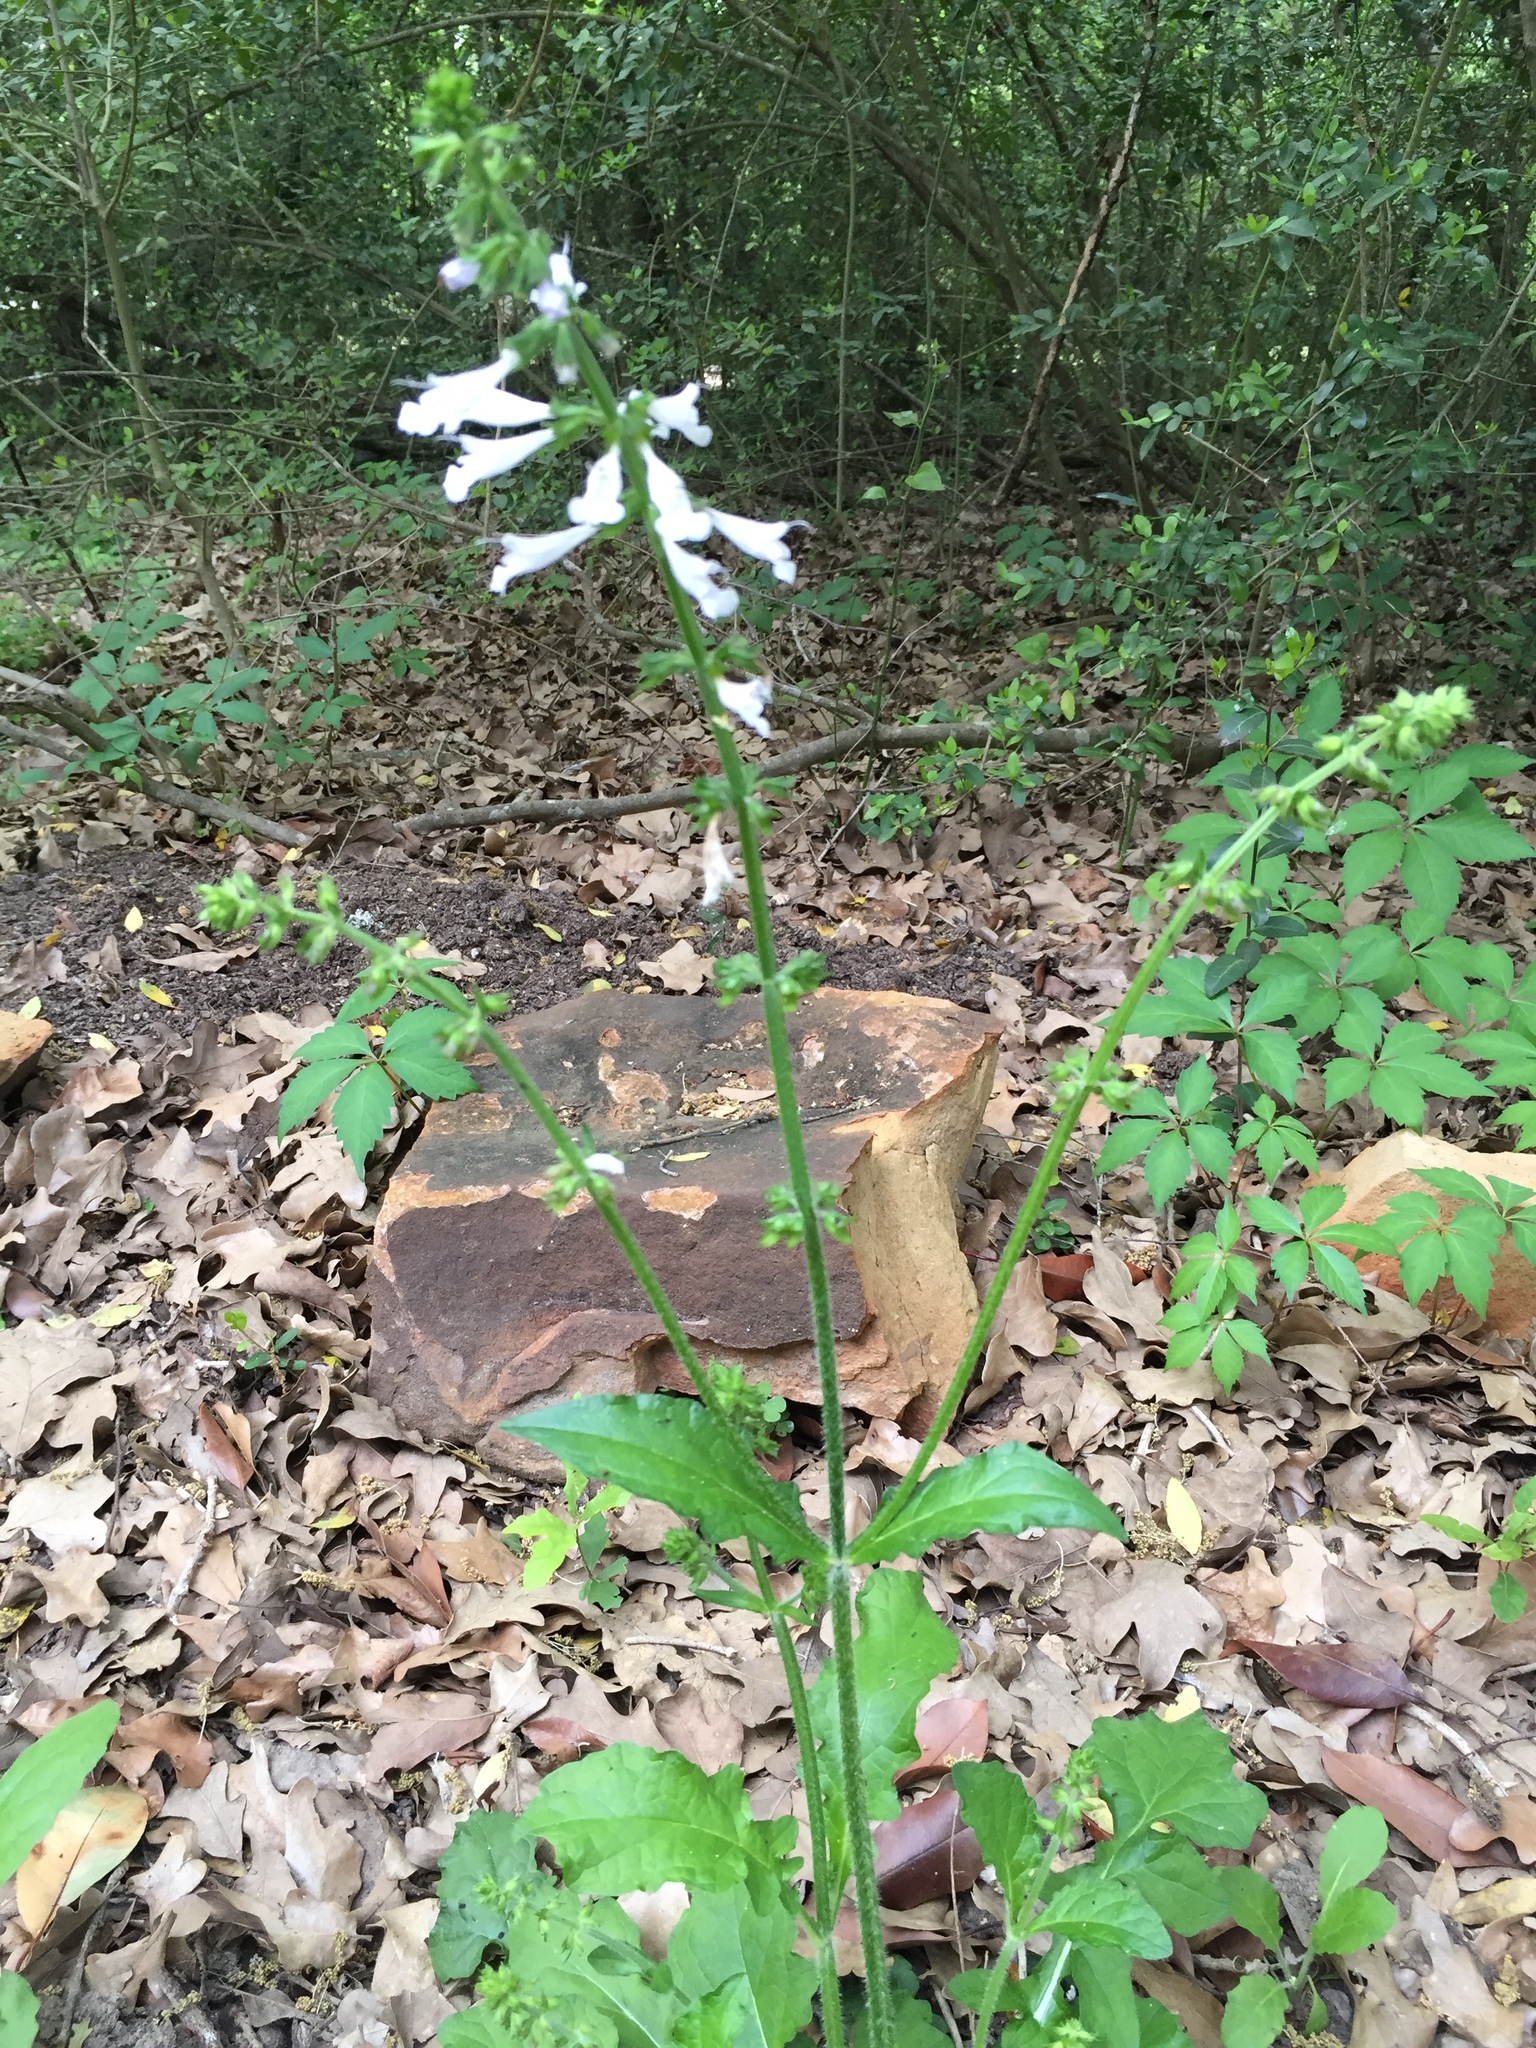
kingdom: Plantae
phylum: Tracheophyta
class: Magnoliopsida
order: Lamiales
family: Lamiaceae
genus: Salvia
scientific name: Salvia lyrata
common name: Cancerweed
